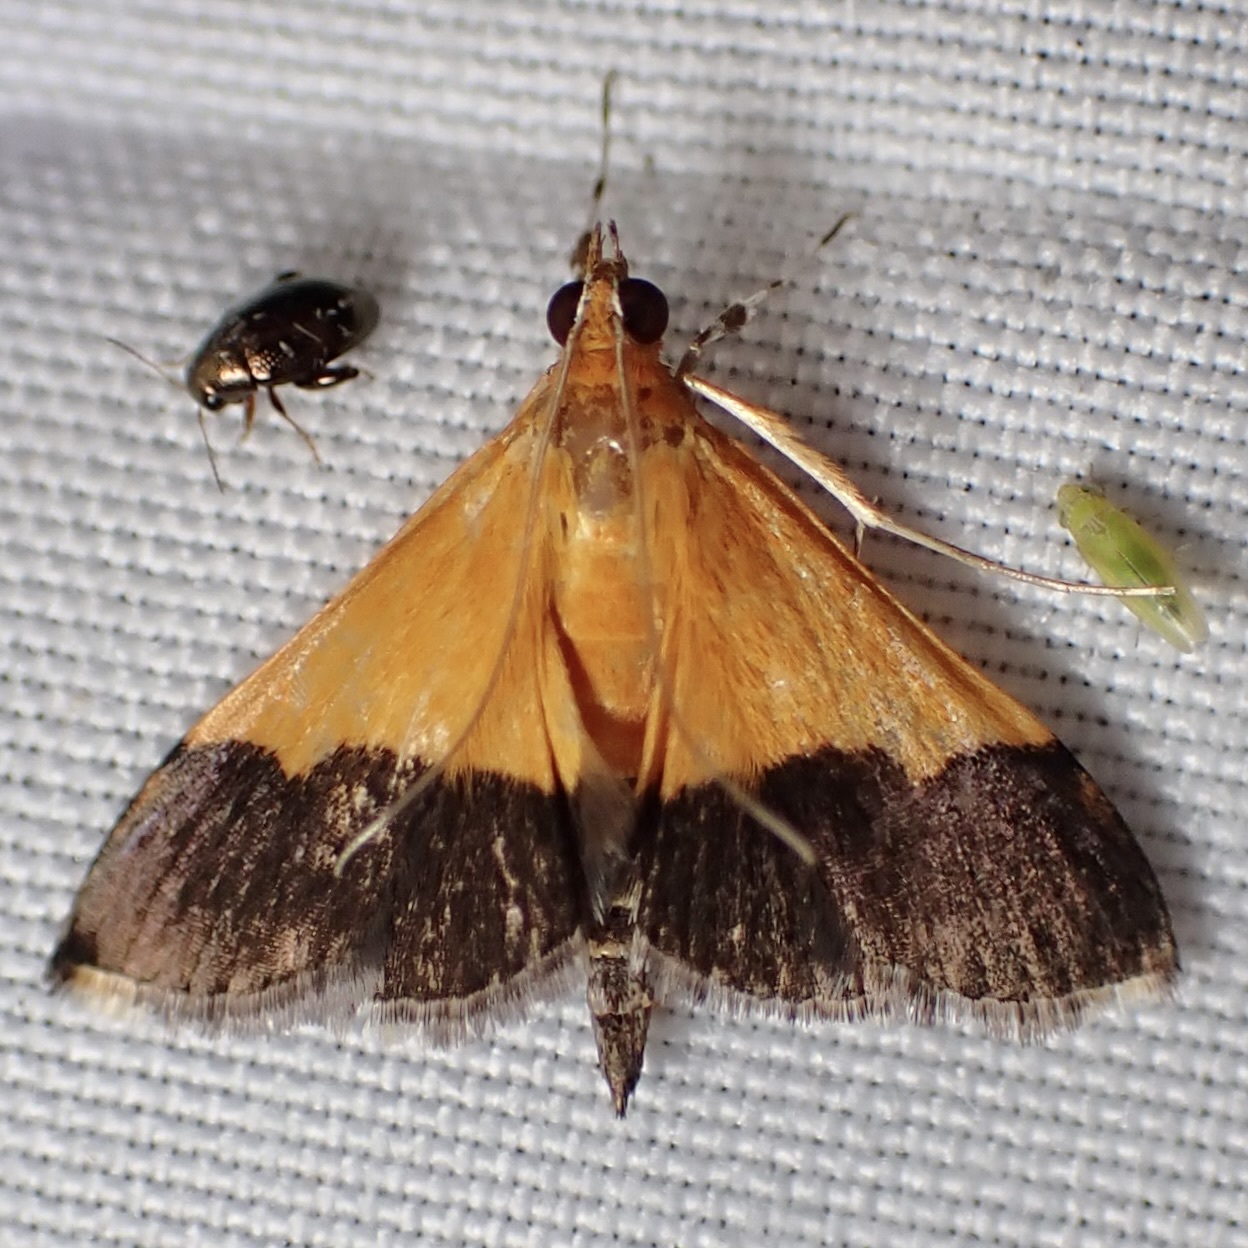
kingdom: Animalia
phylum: Arthropoda
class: Insecta
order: Lepidoptera
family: Crambidae
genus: Pyrausta
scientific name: Pyrausta augustalis
